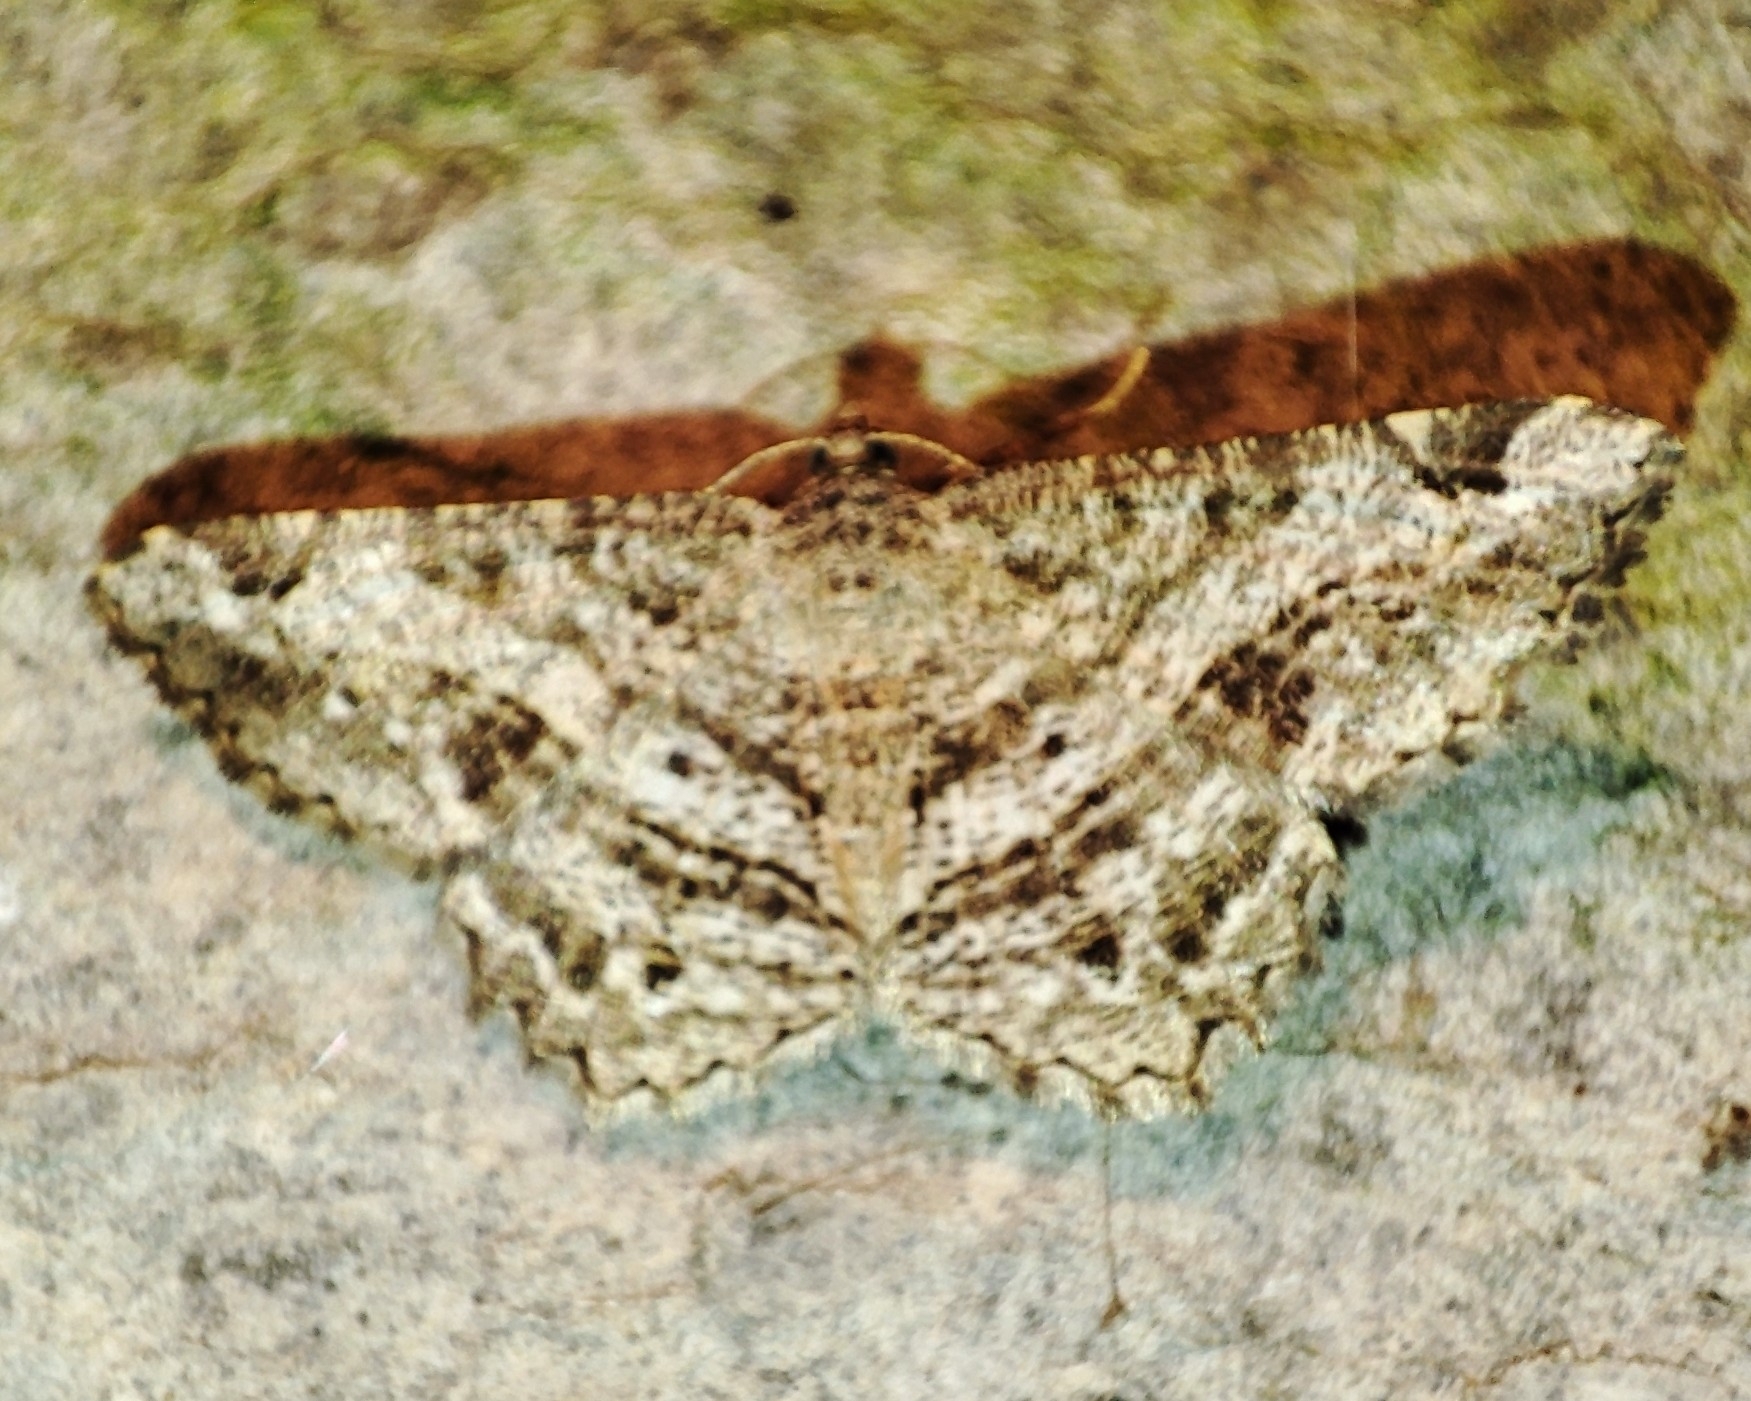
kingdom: Animalia
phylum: Arthropoda
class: Insecta
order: Lepidoptera
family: Geometridae
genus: Chiasmia
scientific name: Chiasmia aestimaria
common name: Tamarisk peacock
